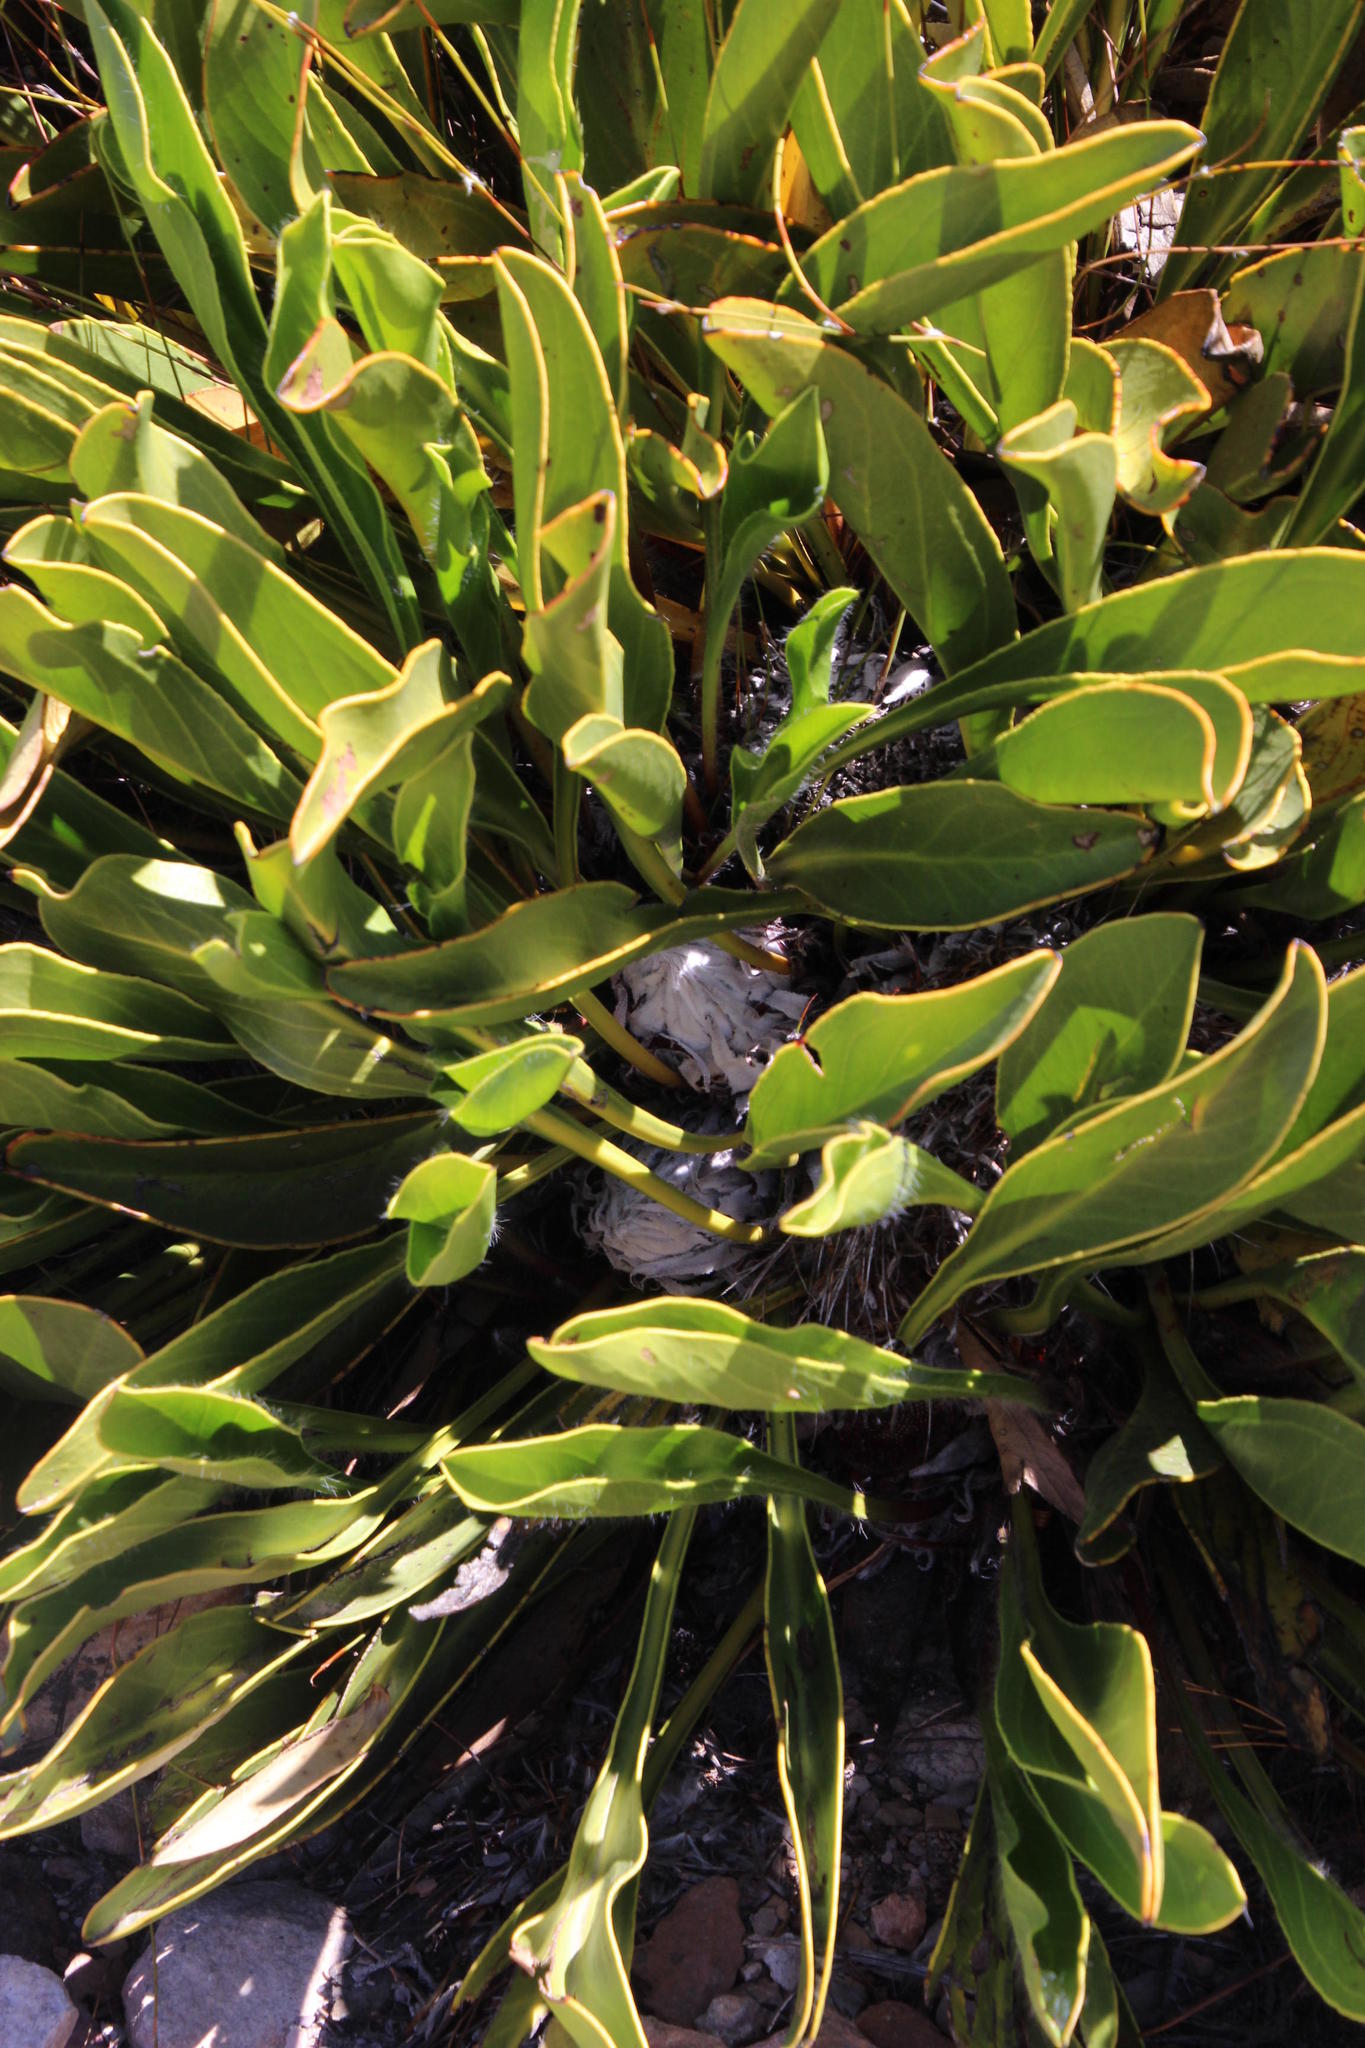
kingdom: Plantae
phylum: Tracheophyta
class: Magnoliopsida
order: Proteales
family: Proteaceae
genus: Protea
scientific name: Protea cryophila
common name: Snow protea
